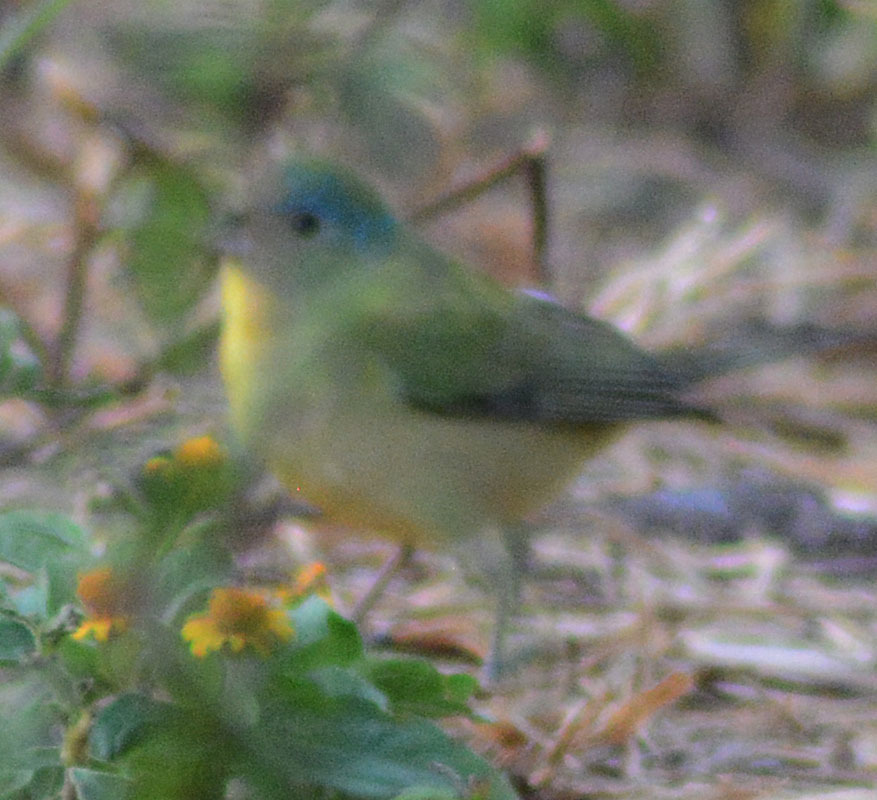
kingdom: Animalia
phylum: Chordata
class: Aves
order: Passeriformes
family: Cardinalidae
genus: Passerina
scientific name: Passerina ciris
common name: Painted bunting
